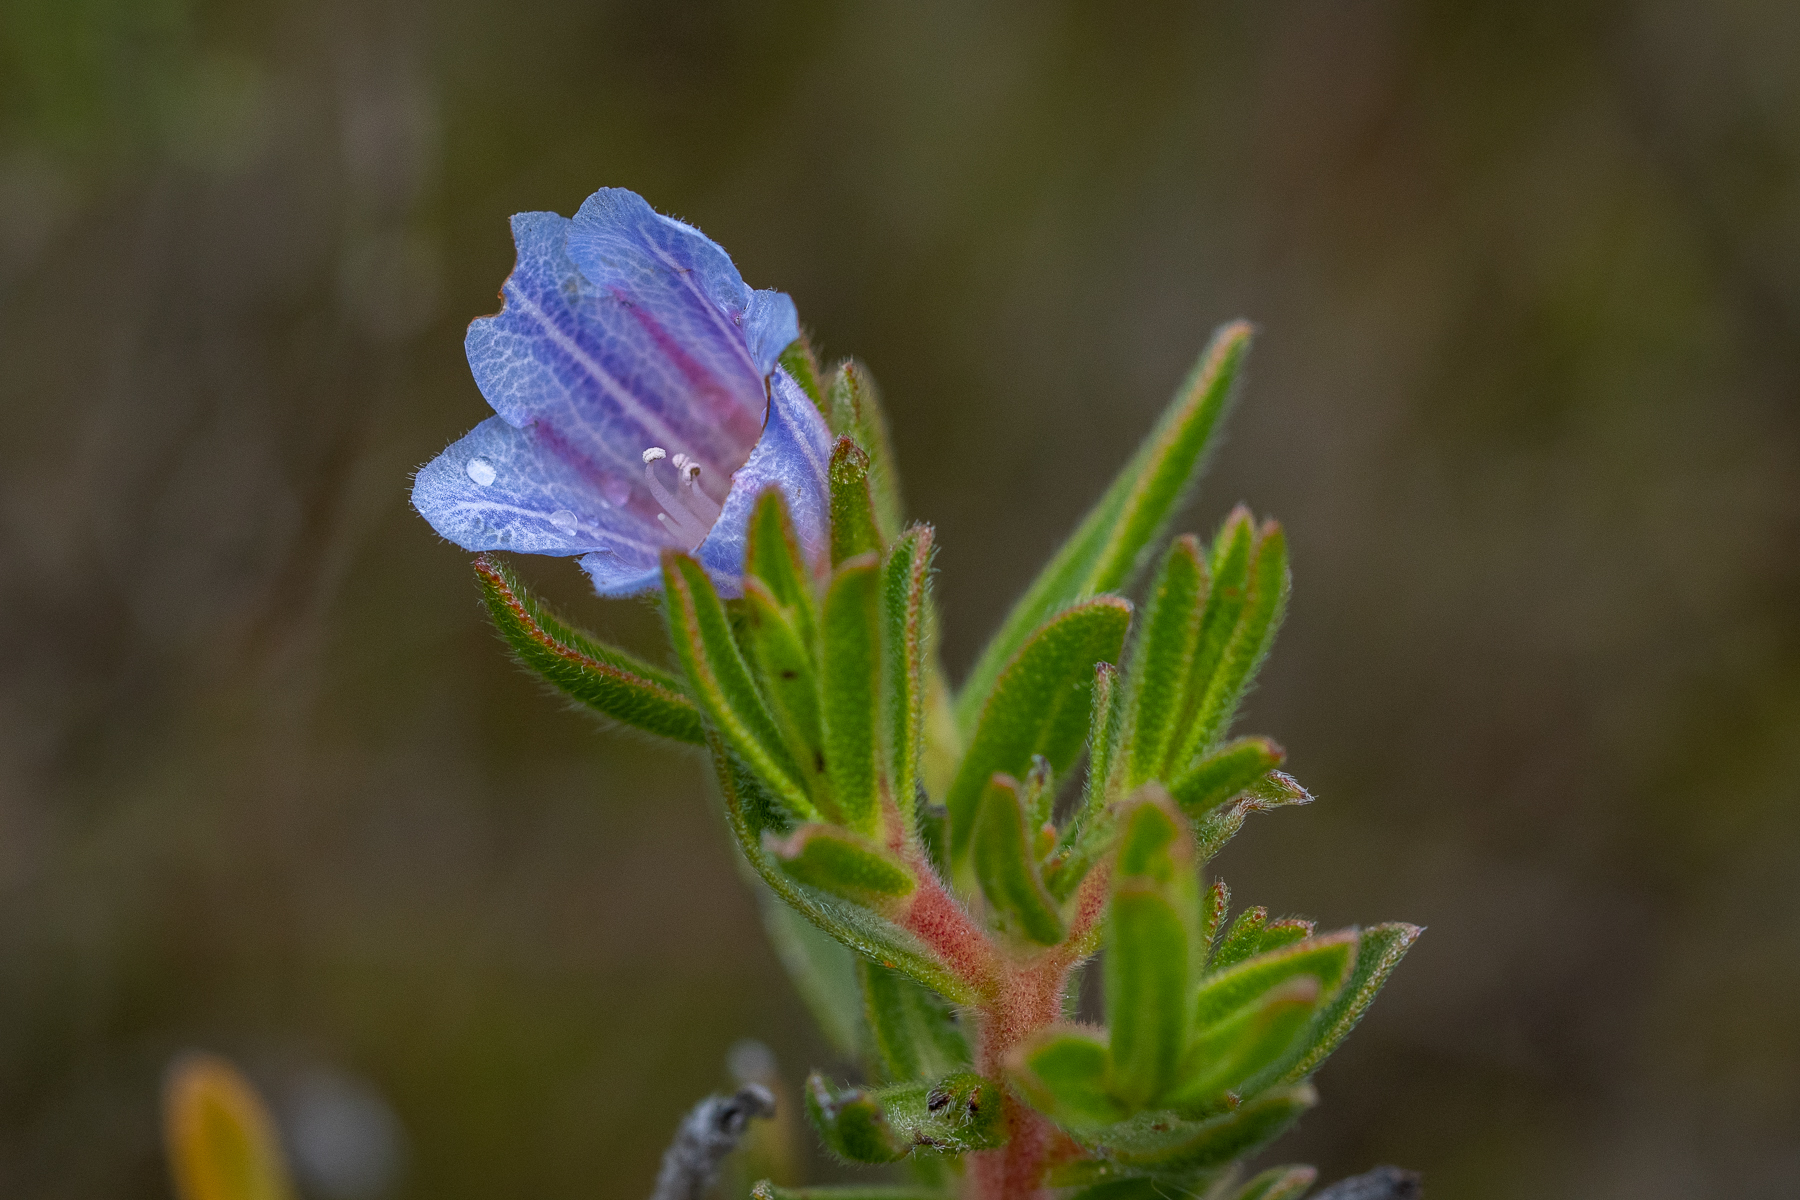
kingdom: Plantae
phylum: Tracheophyta
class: Magnoliopsida
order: Boraginales
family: Boraginaceae
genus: Lobostemon
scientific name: Lobostemon fruticosus
